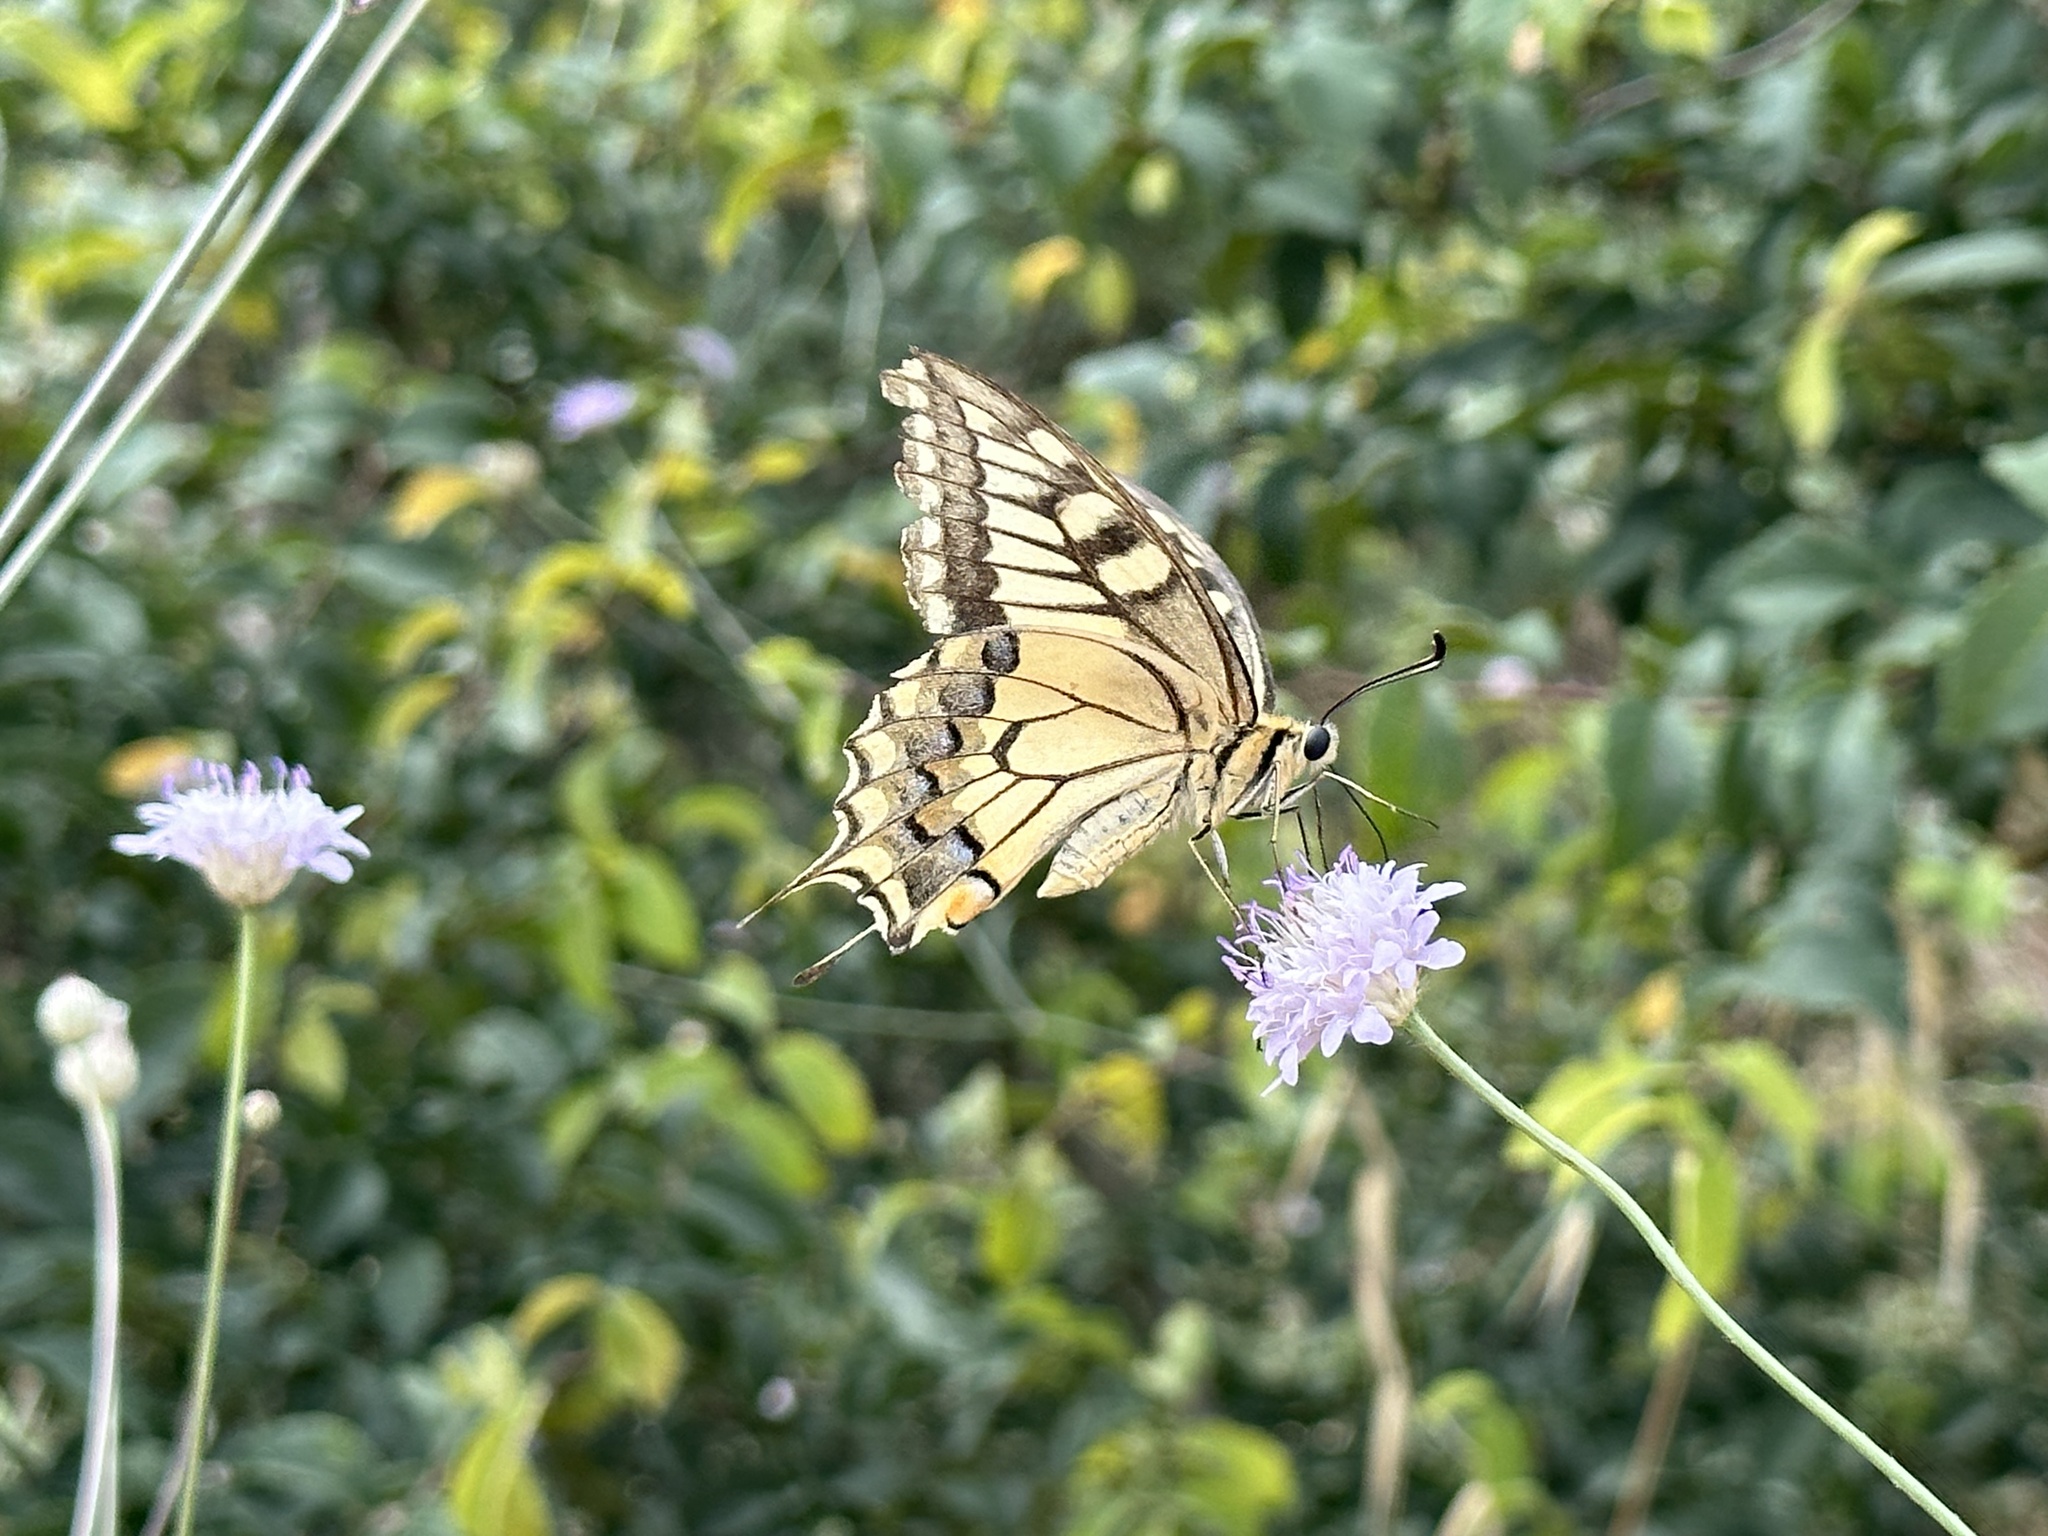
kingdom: Animalia
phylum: Arthropoda
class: Insecta
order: Lepidoptera
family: Papilionidae
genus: Papilio
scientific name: Papilio machaon
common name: Swallowtail
